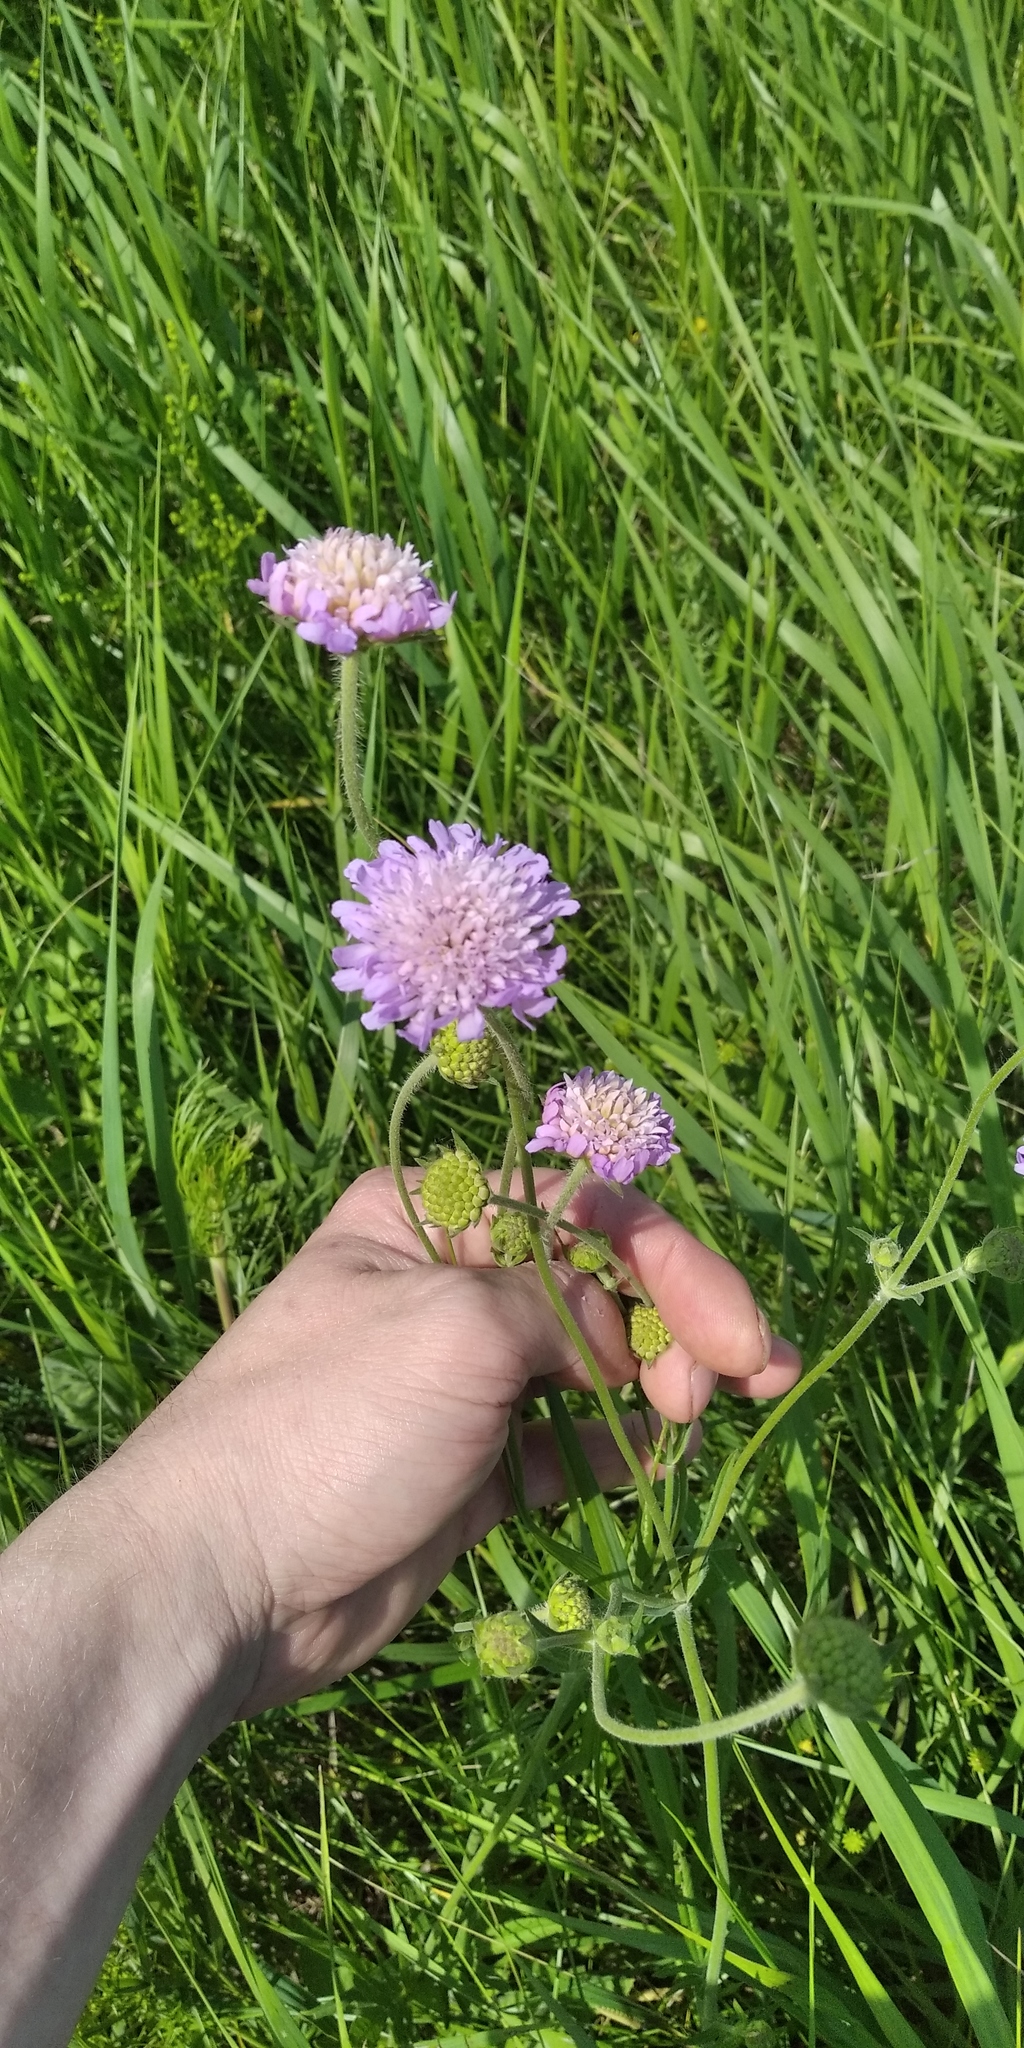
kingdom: Plantae
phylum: Tracheophyta
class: Magnoliopsida
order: Dipsacales
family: Caprifoliaceae
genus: Knautia
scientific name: Knautia arvensis
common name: Field scabiosa
